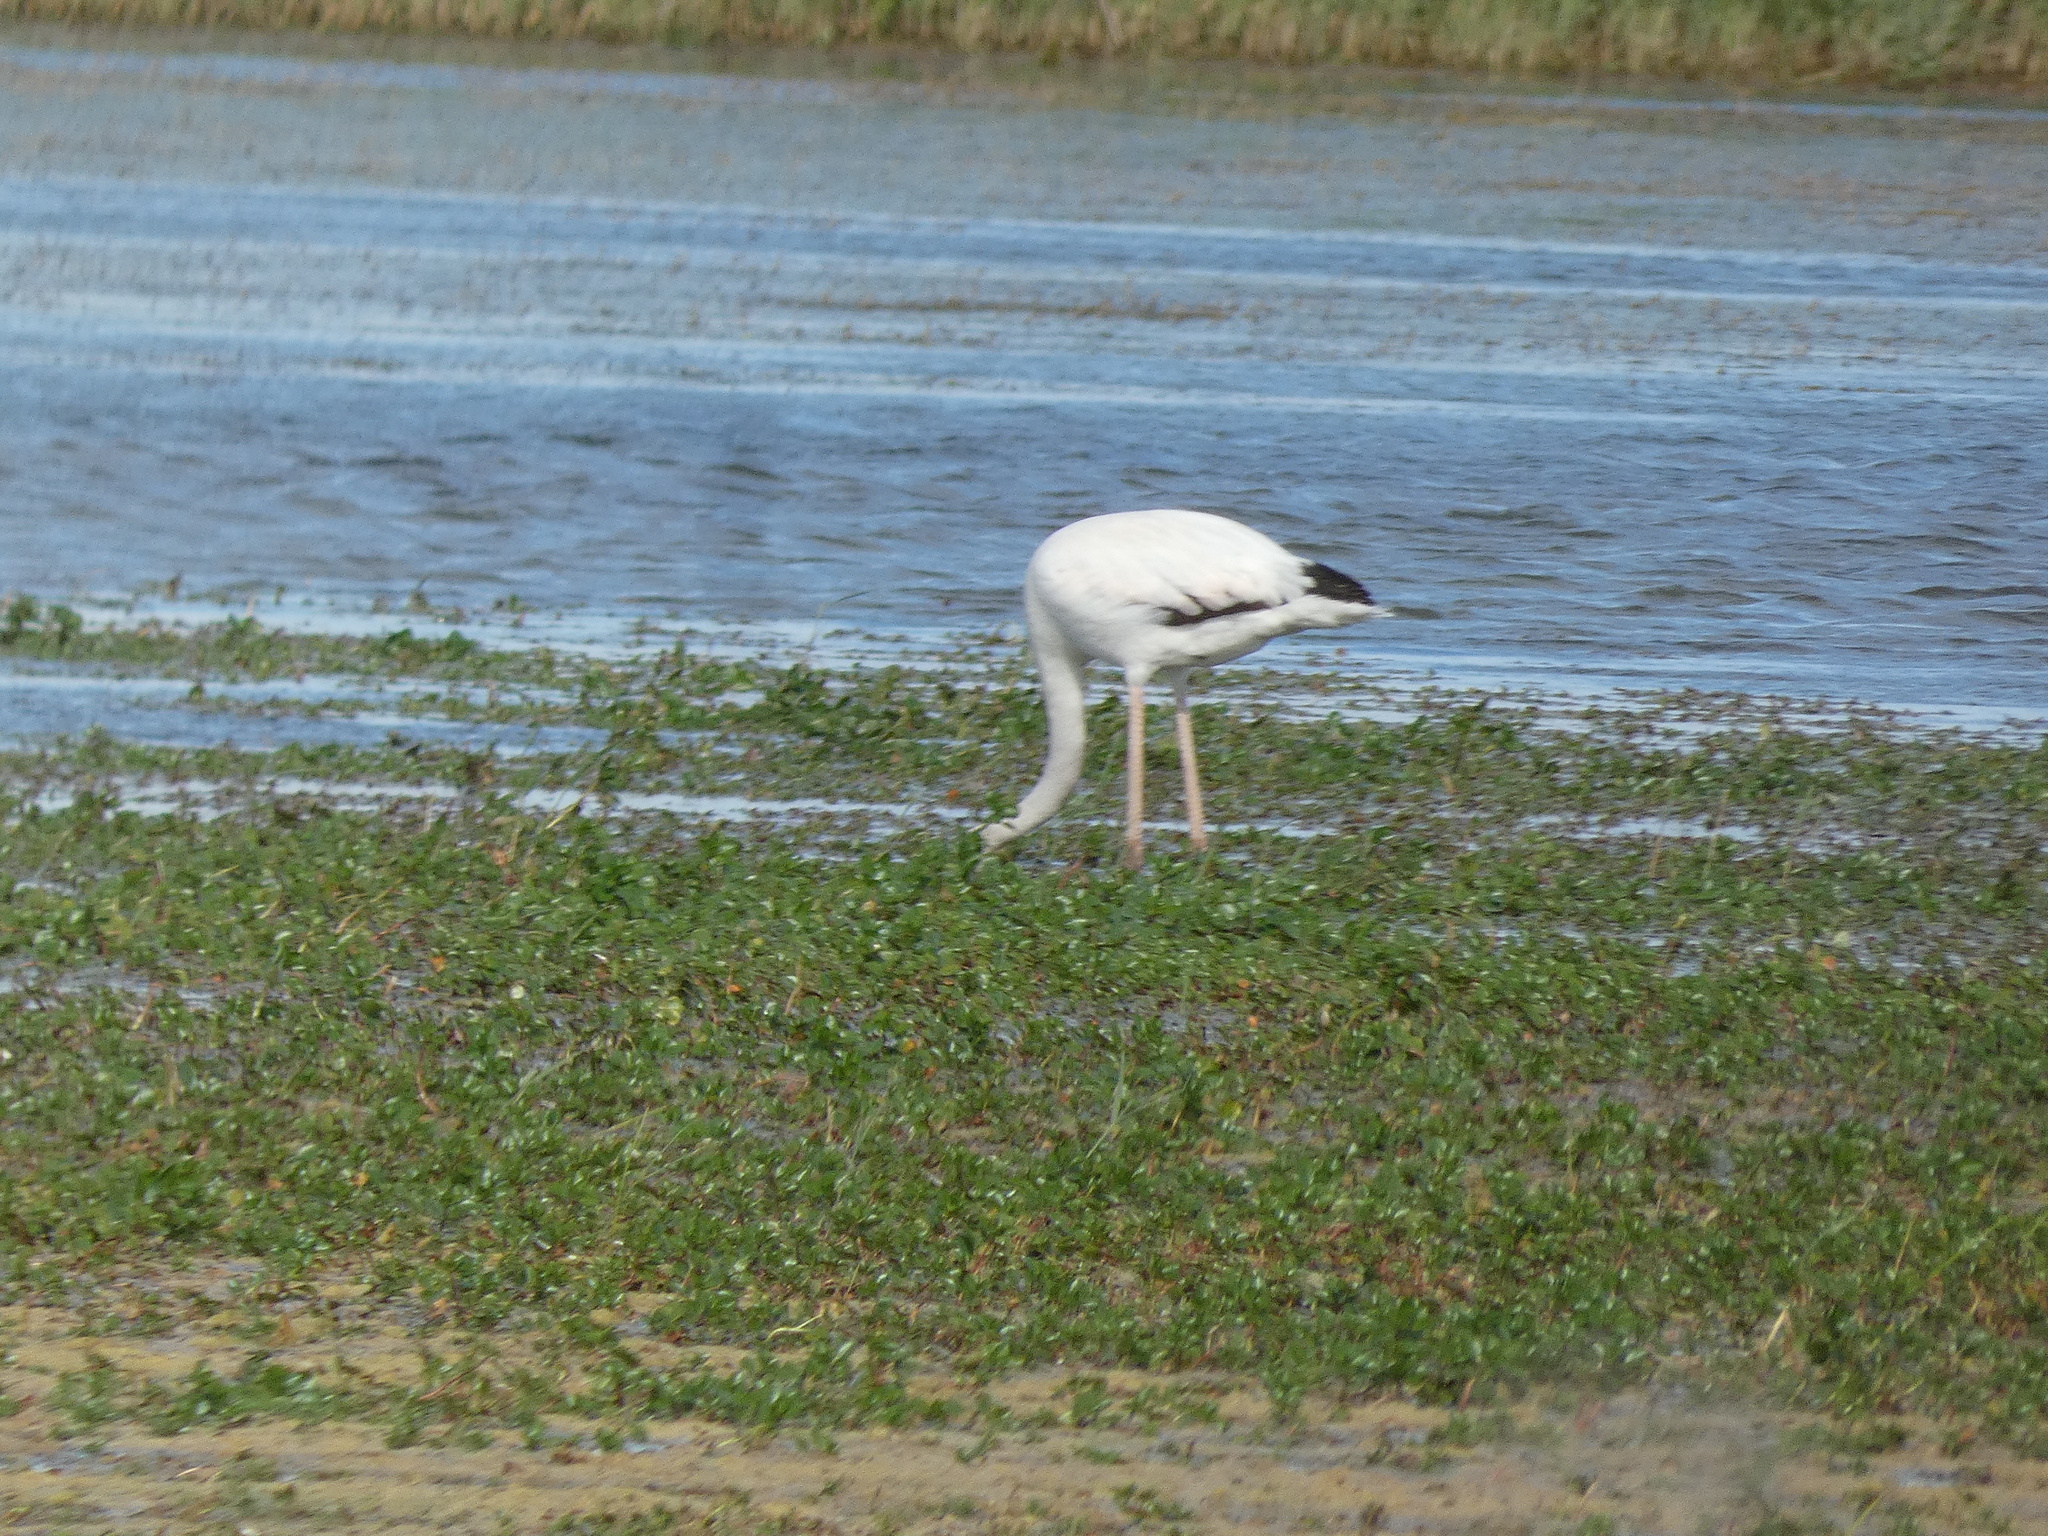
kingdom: Animalia
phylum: Chordata
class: Aves
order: Phoenicopteriformes
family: Phoenicopteridae
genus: Phoenicopterus
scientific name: Phoenicopterus roseus
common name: Greater flamingo
